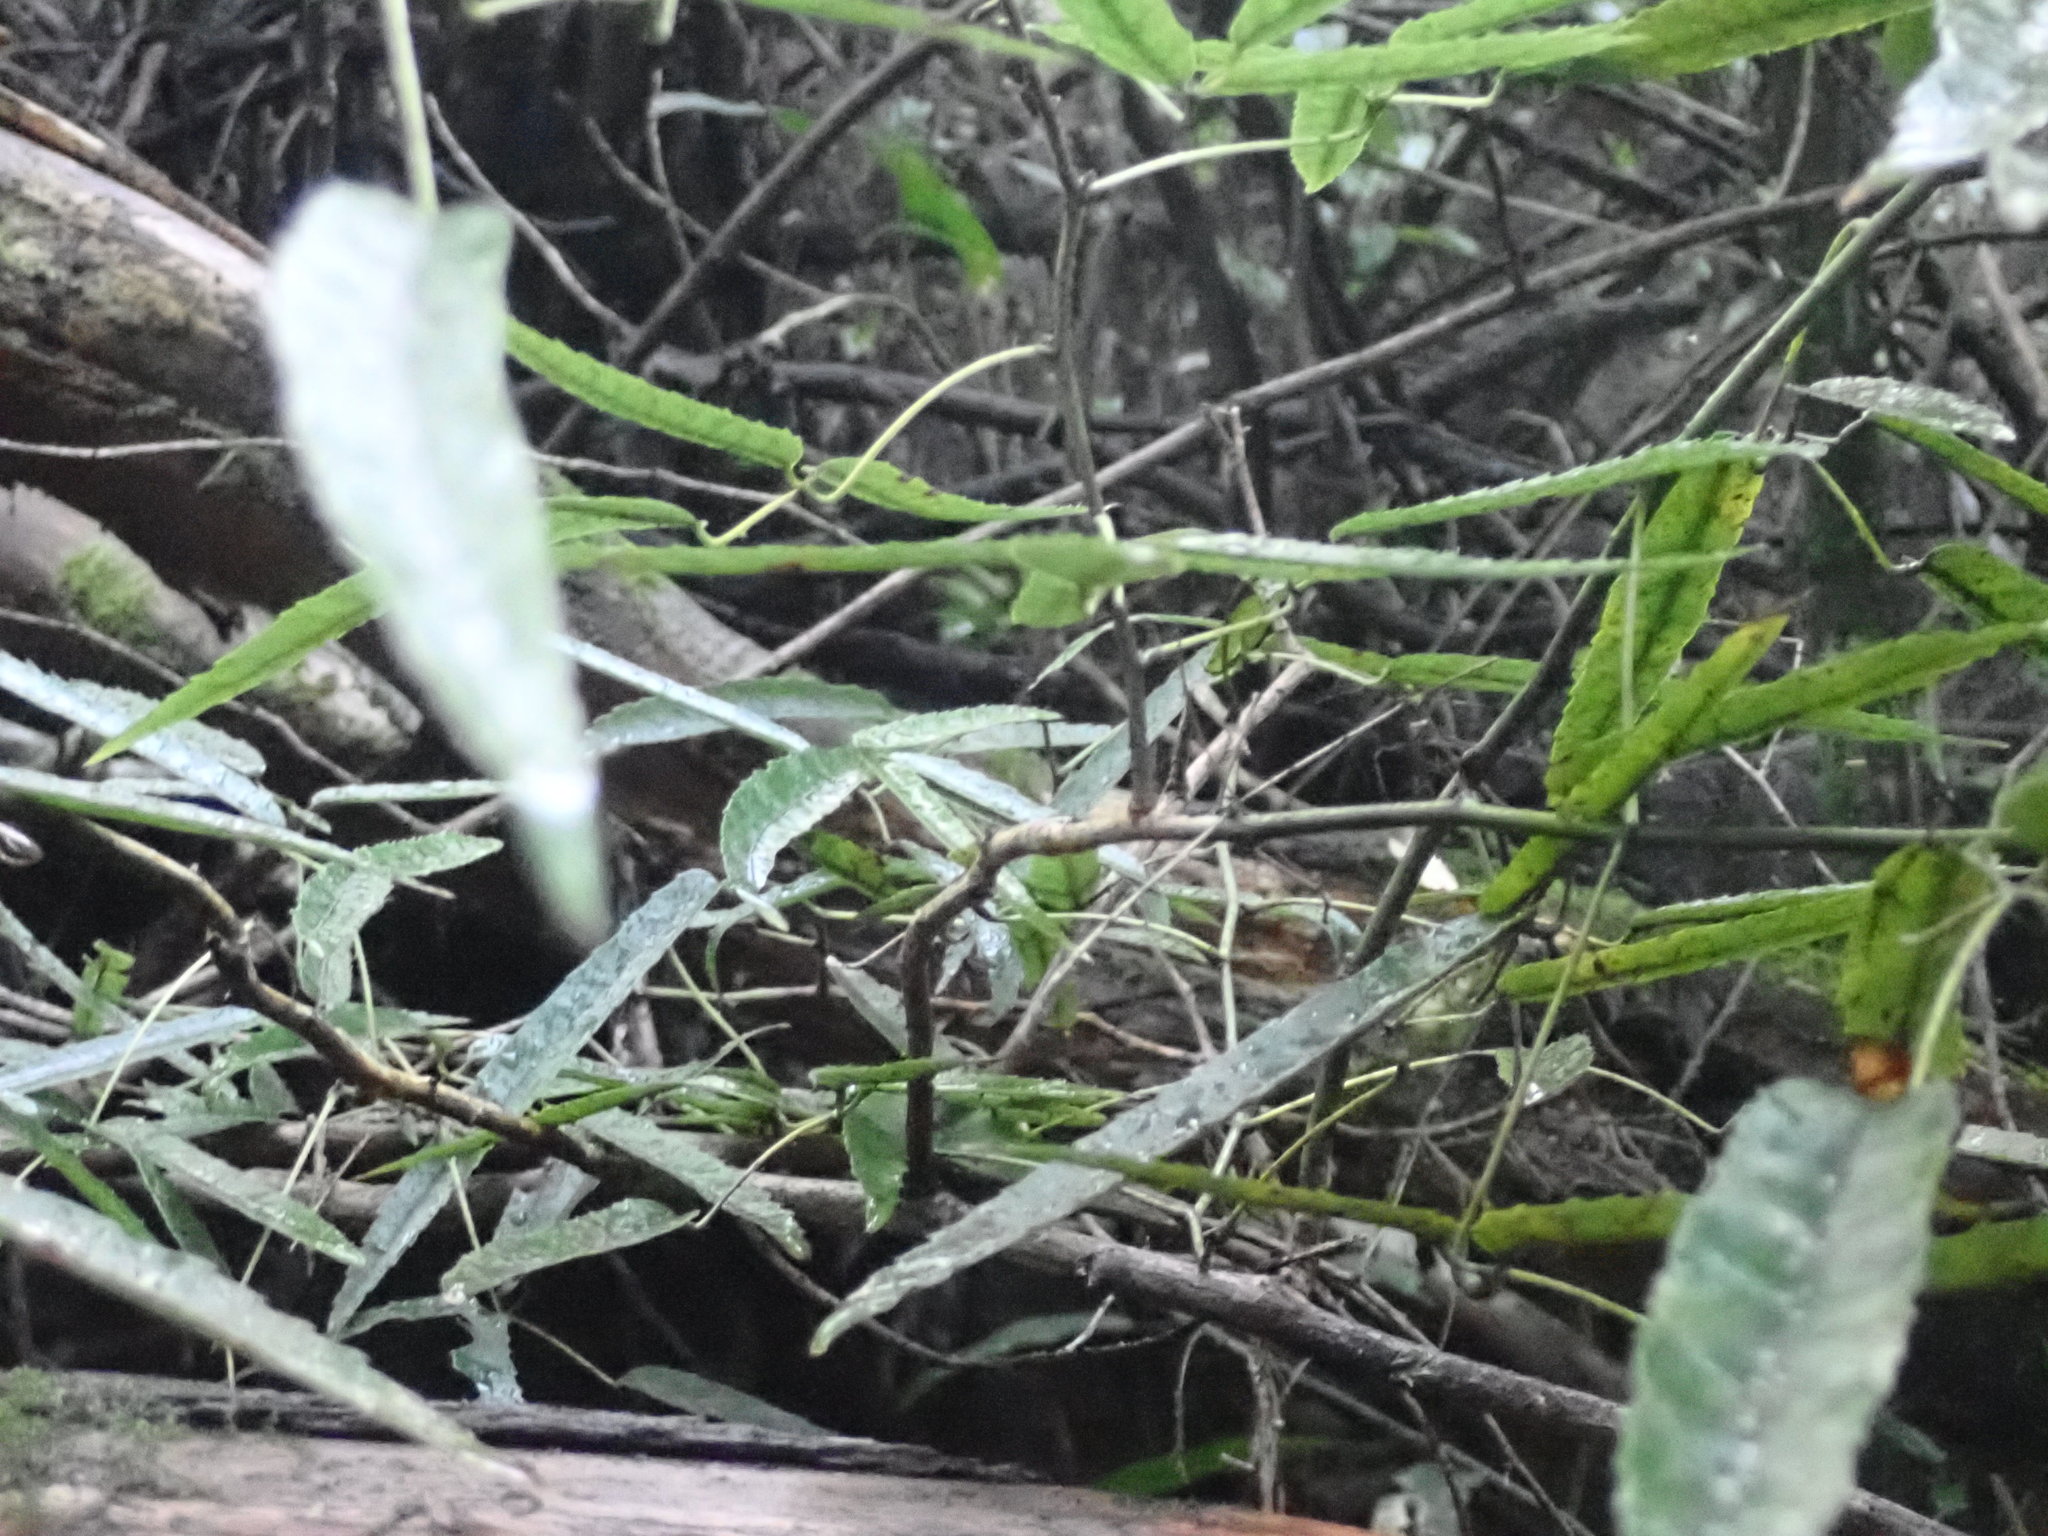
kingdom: Plantae
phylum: Tracheophyta
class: Magnoliopsida
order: Rosales
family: Rosaceae
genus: Rubus
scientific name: Rubus cissoides
